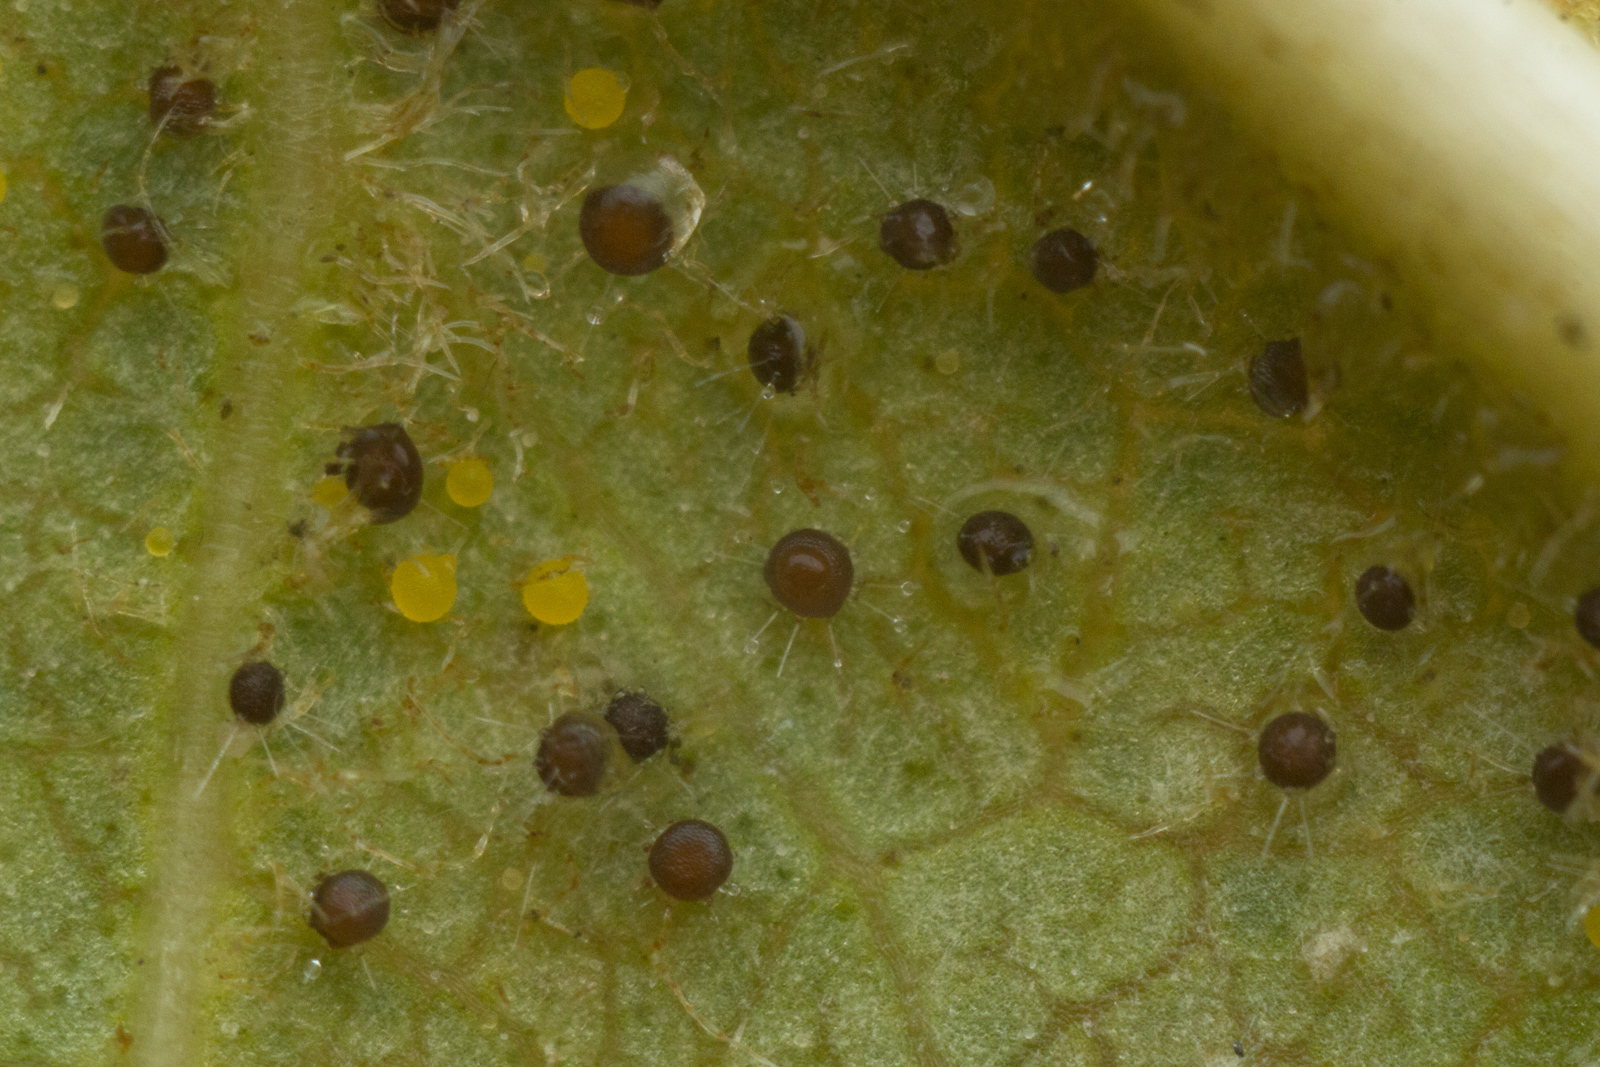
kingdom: Fungi
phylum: Ascomycota
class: Leotiomycetes
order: Helotiales
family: Erysiphaceae
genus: Phyllactinia
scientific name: Phyllactinia fraxini
